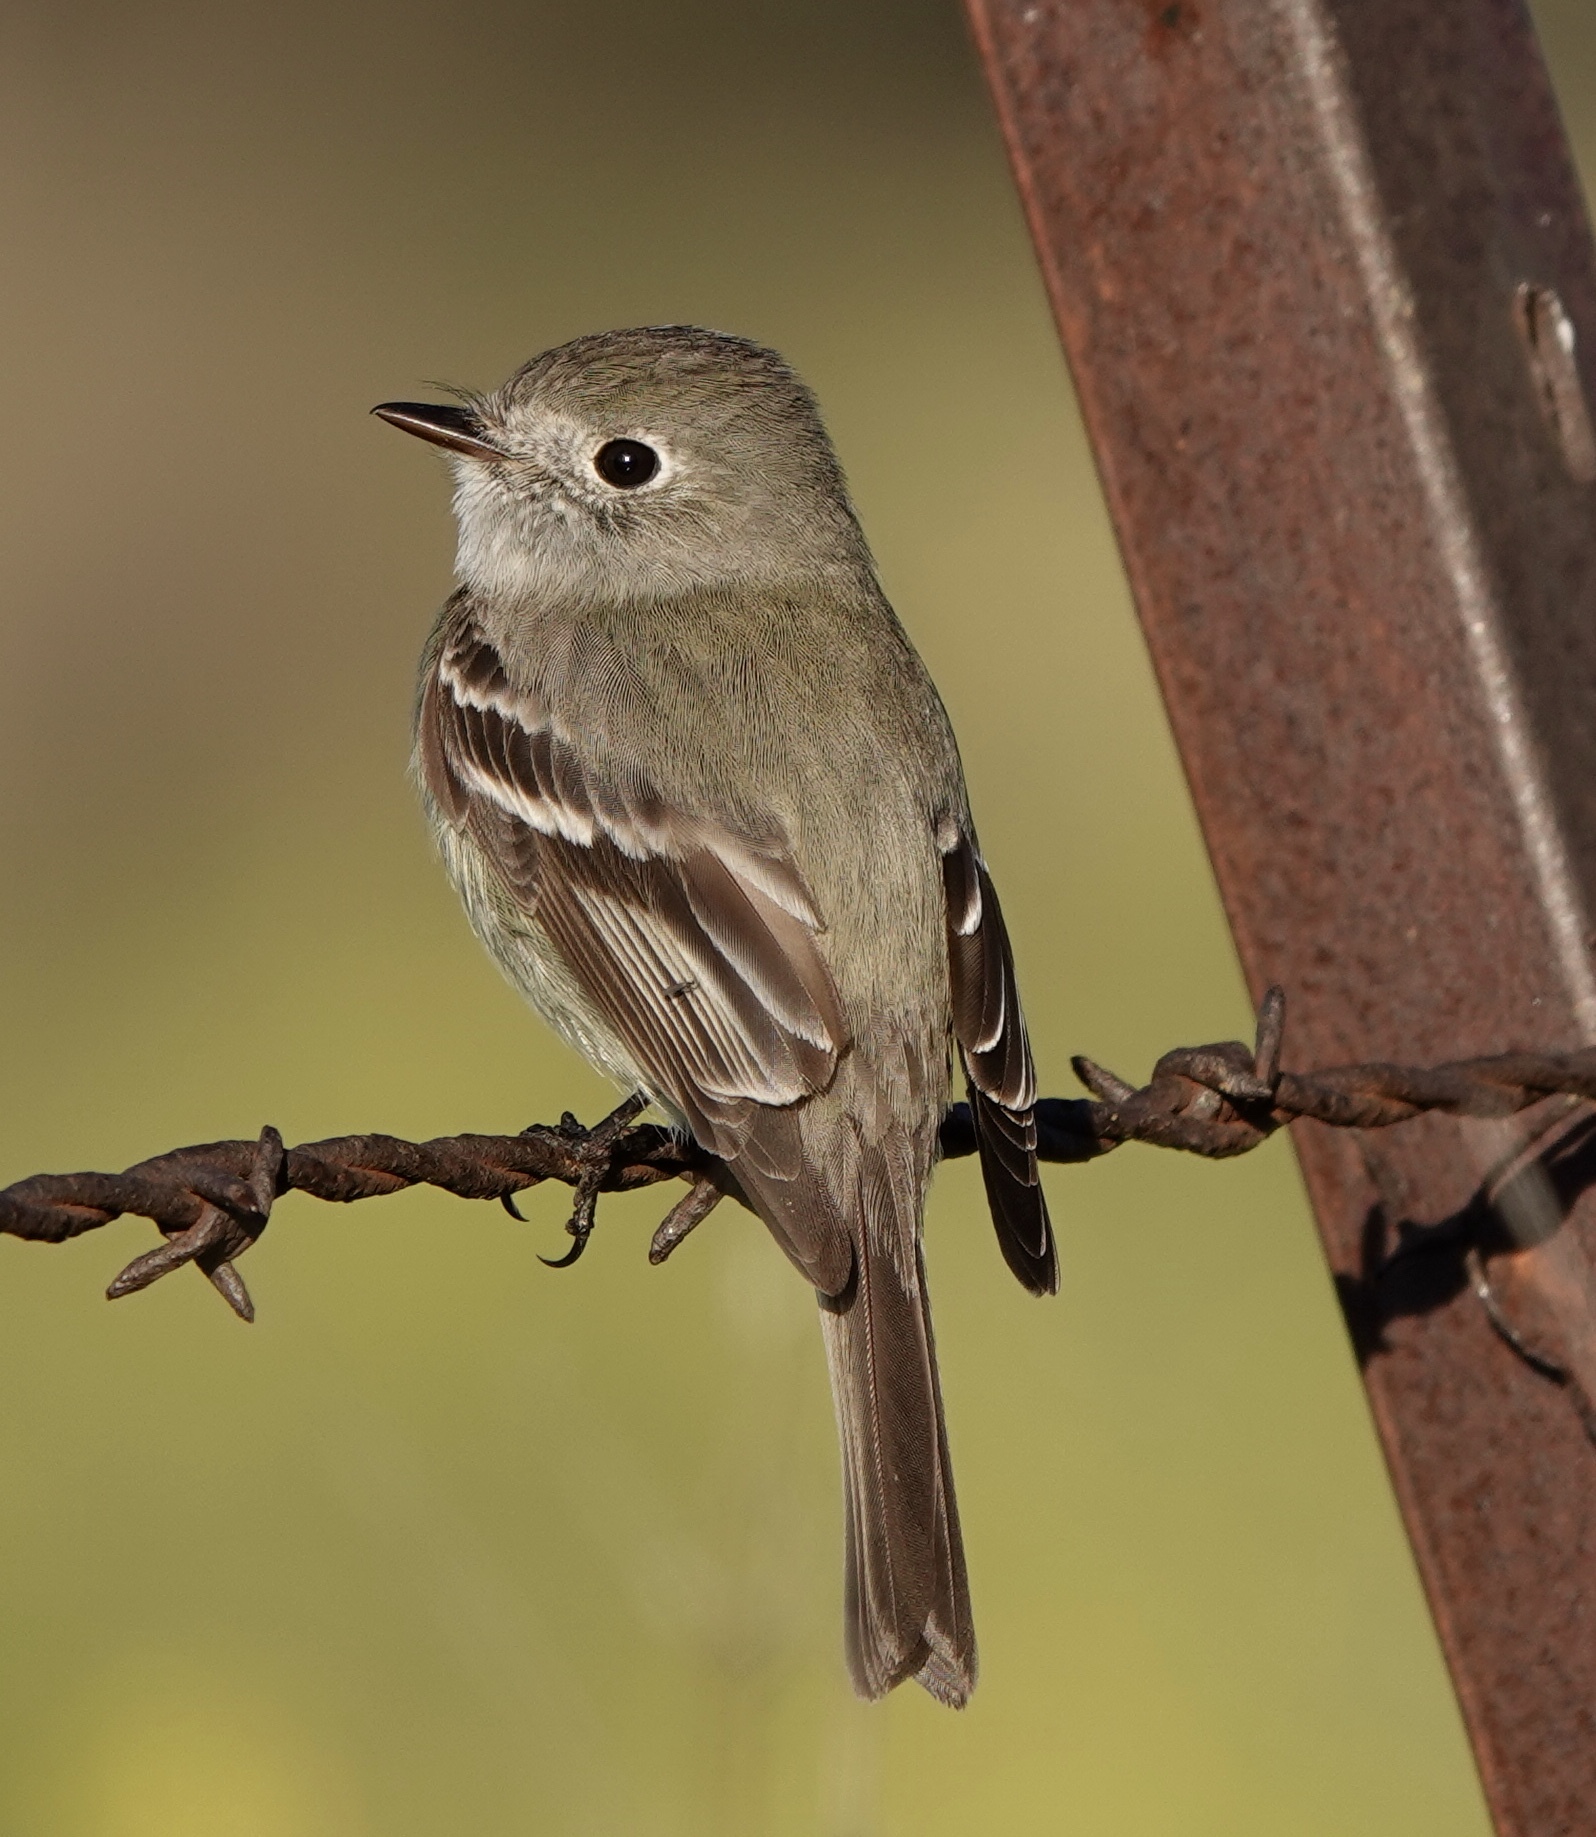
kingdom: Animalia
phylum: Chordata
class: Aves
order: Passeriformes
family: Tyrannidae
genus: Empidonax
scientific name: Empidonax hammondii
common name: Hammond's flycatcher
